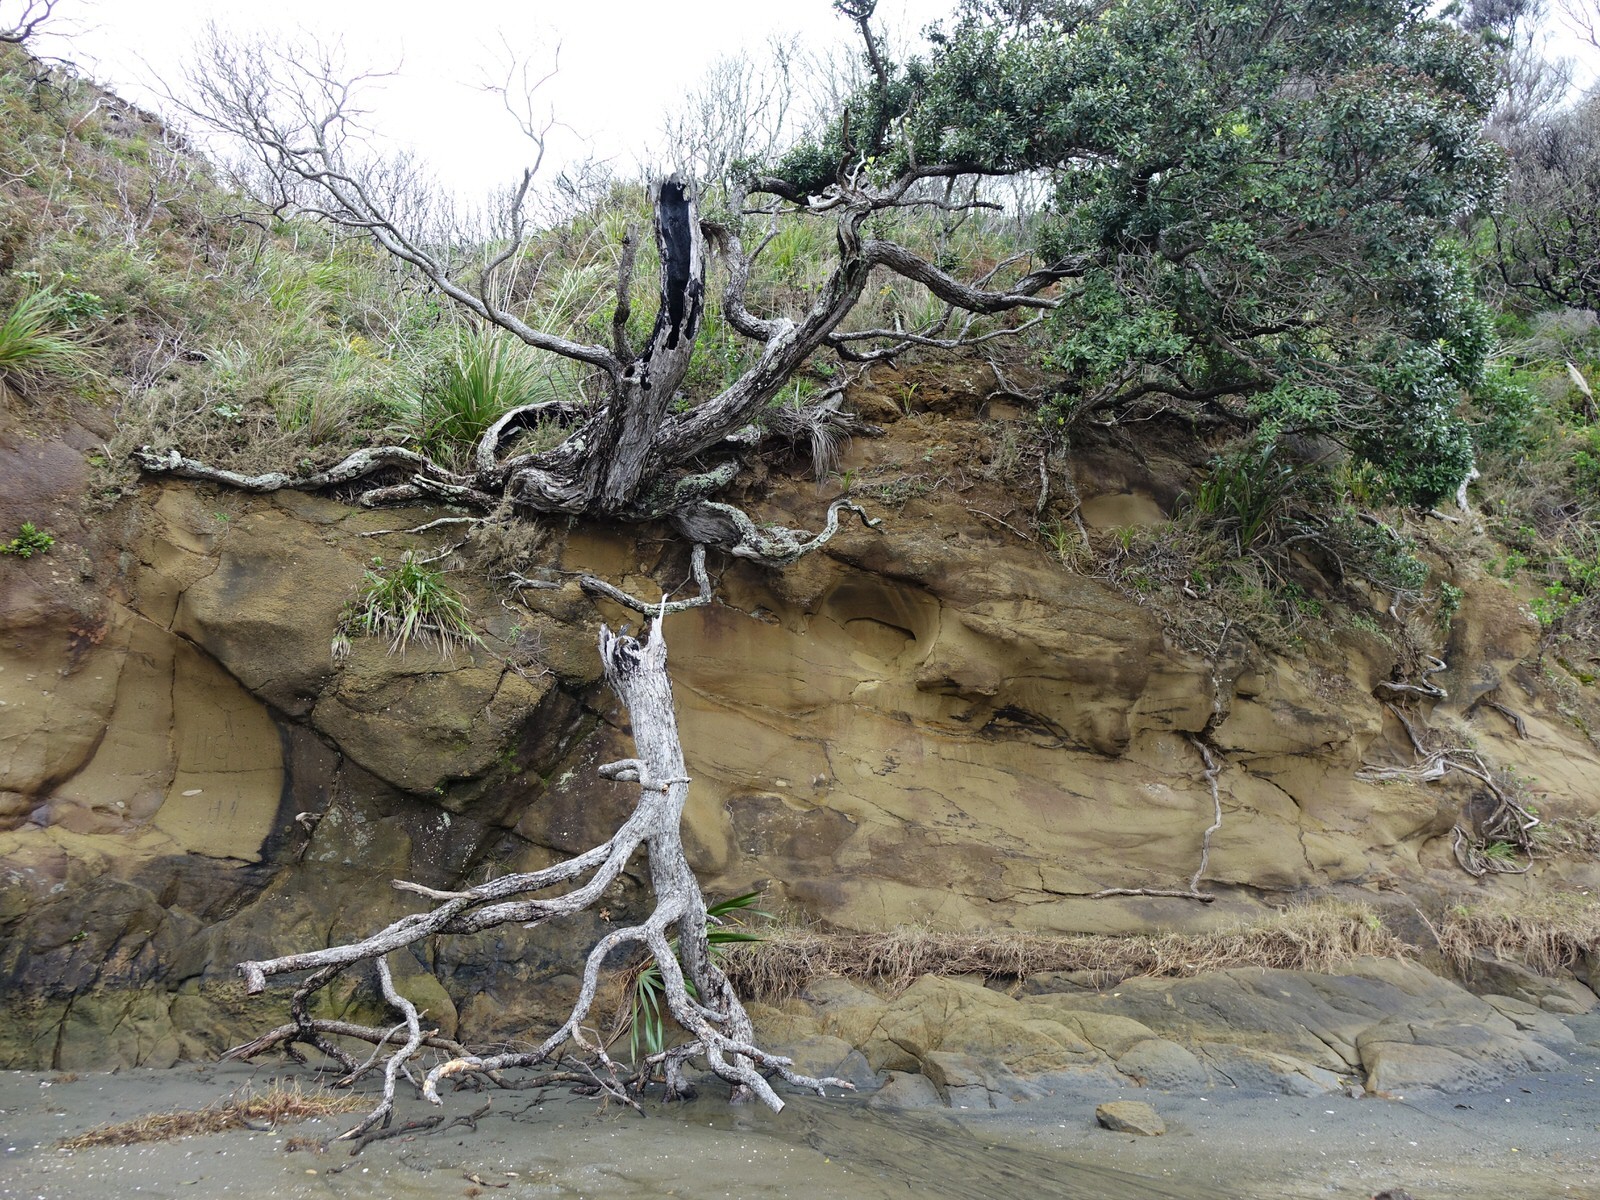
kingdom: Plantae
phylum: Tracheophyta
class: Magnoliopsida
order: Myrtales
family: Myrtaceae
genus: Metrosideros
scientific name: Metrosideros excelsa
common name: New zealand christmastree
